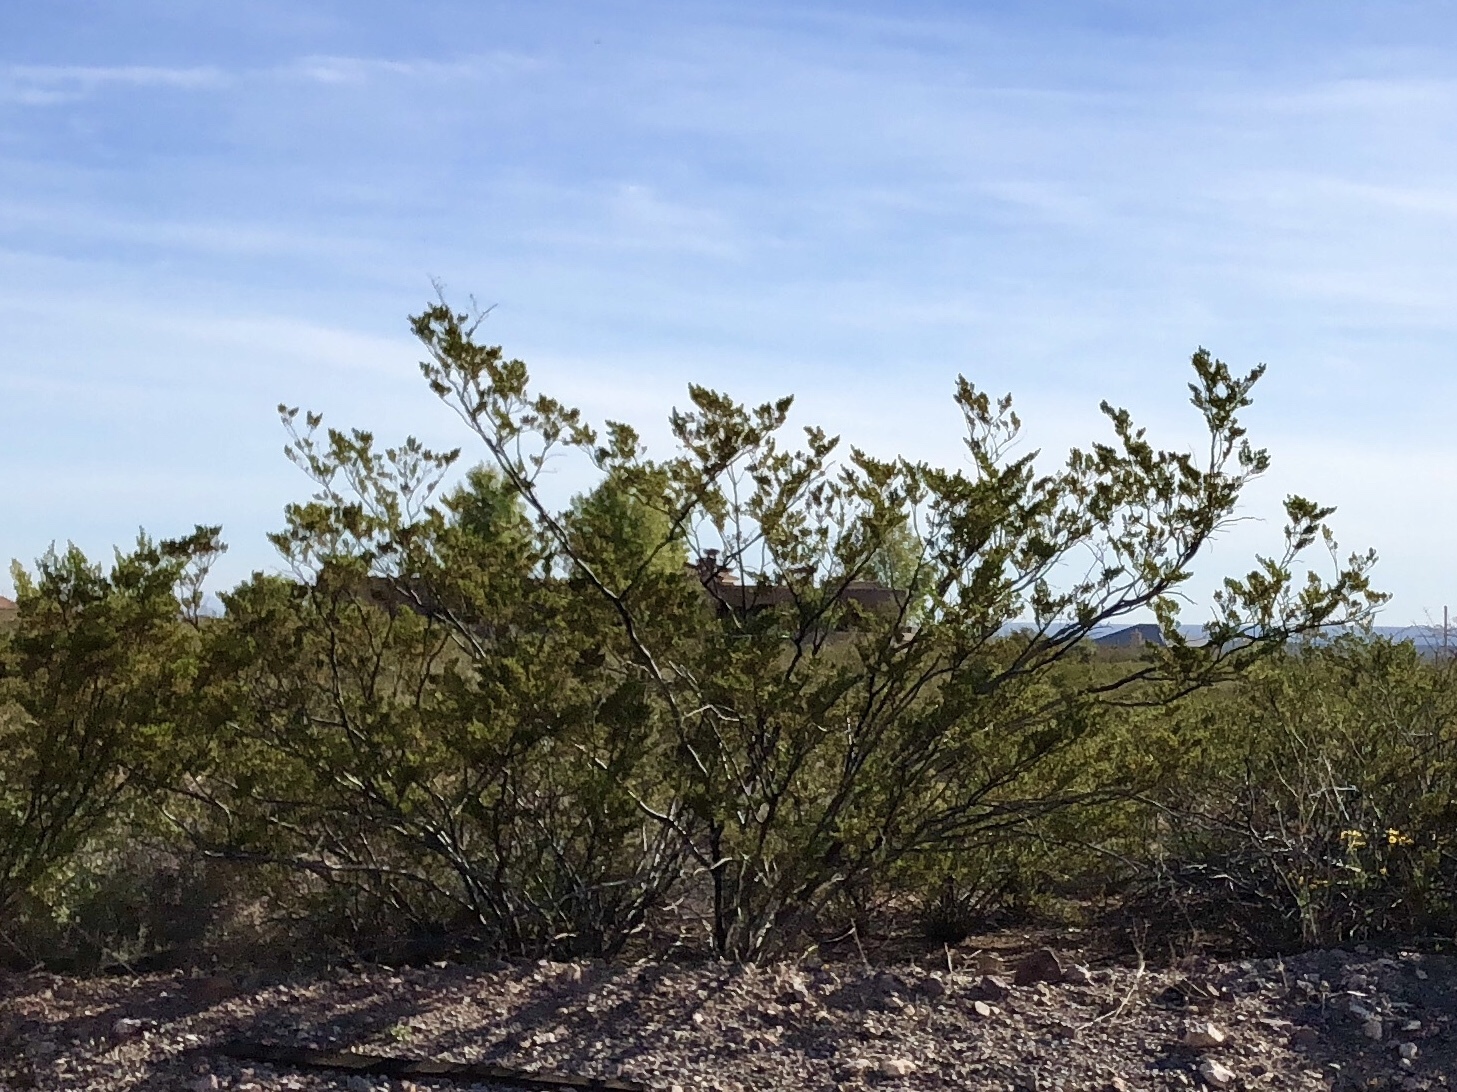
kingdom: Plantae
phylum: Tracheophyta
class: Magnoliopsida
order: Zygophyllales
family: Zygophyllaceae
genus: Larrea
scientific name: Larrea tridentata
